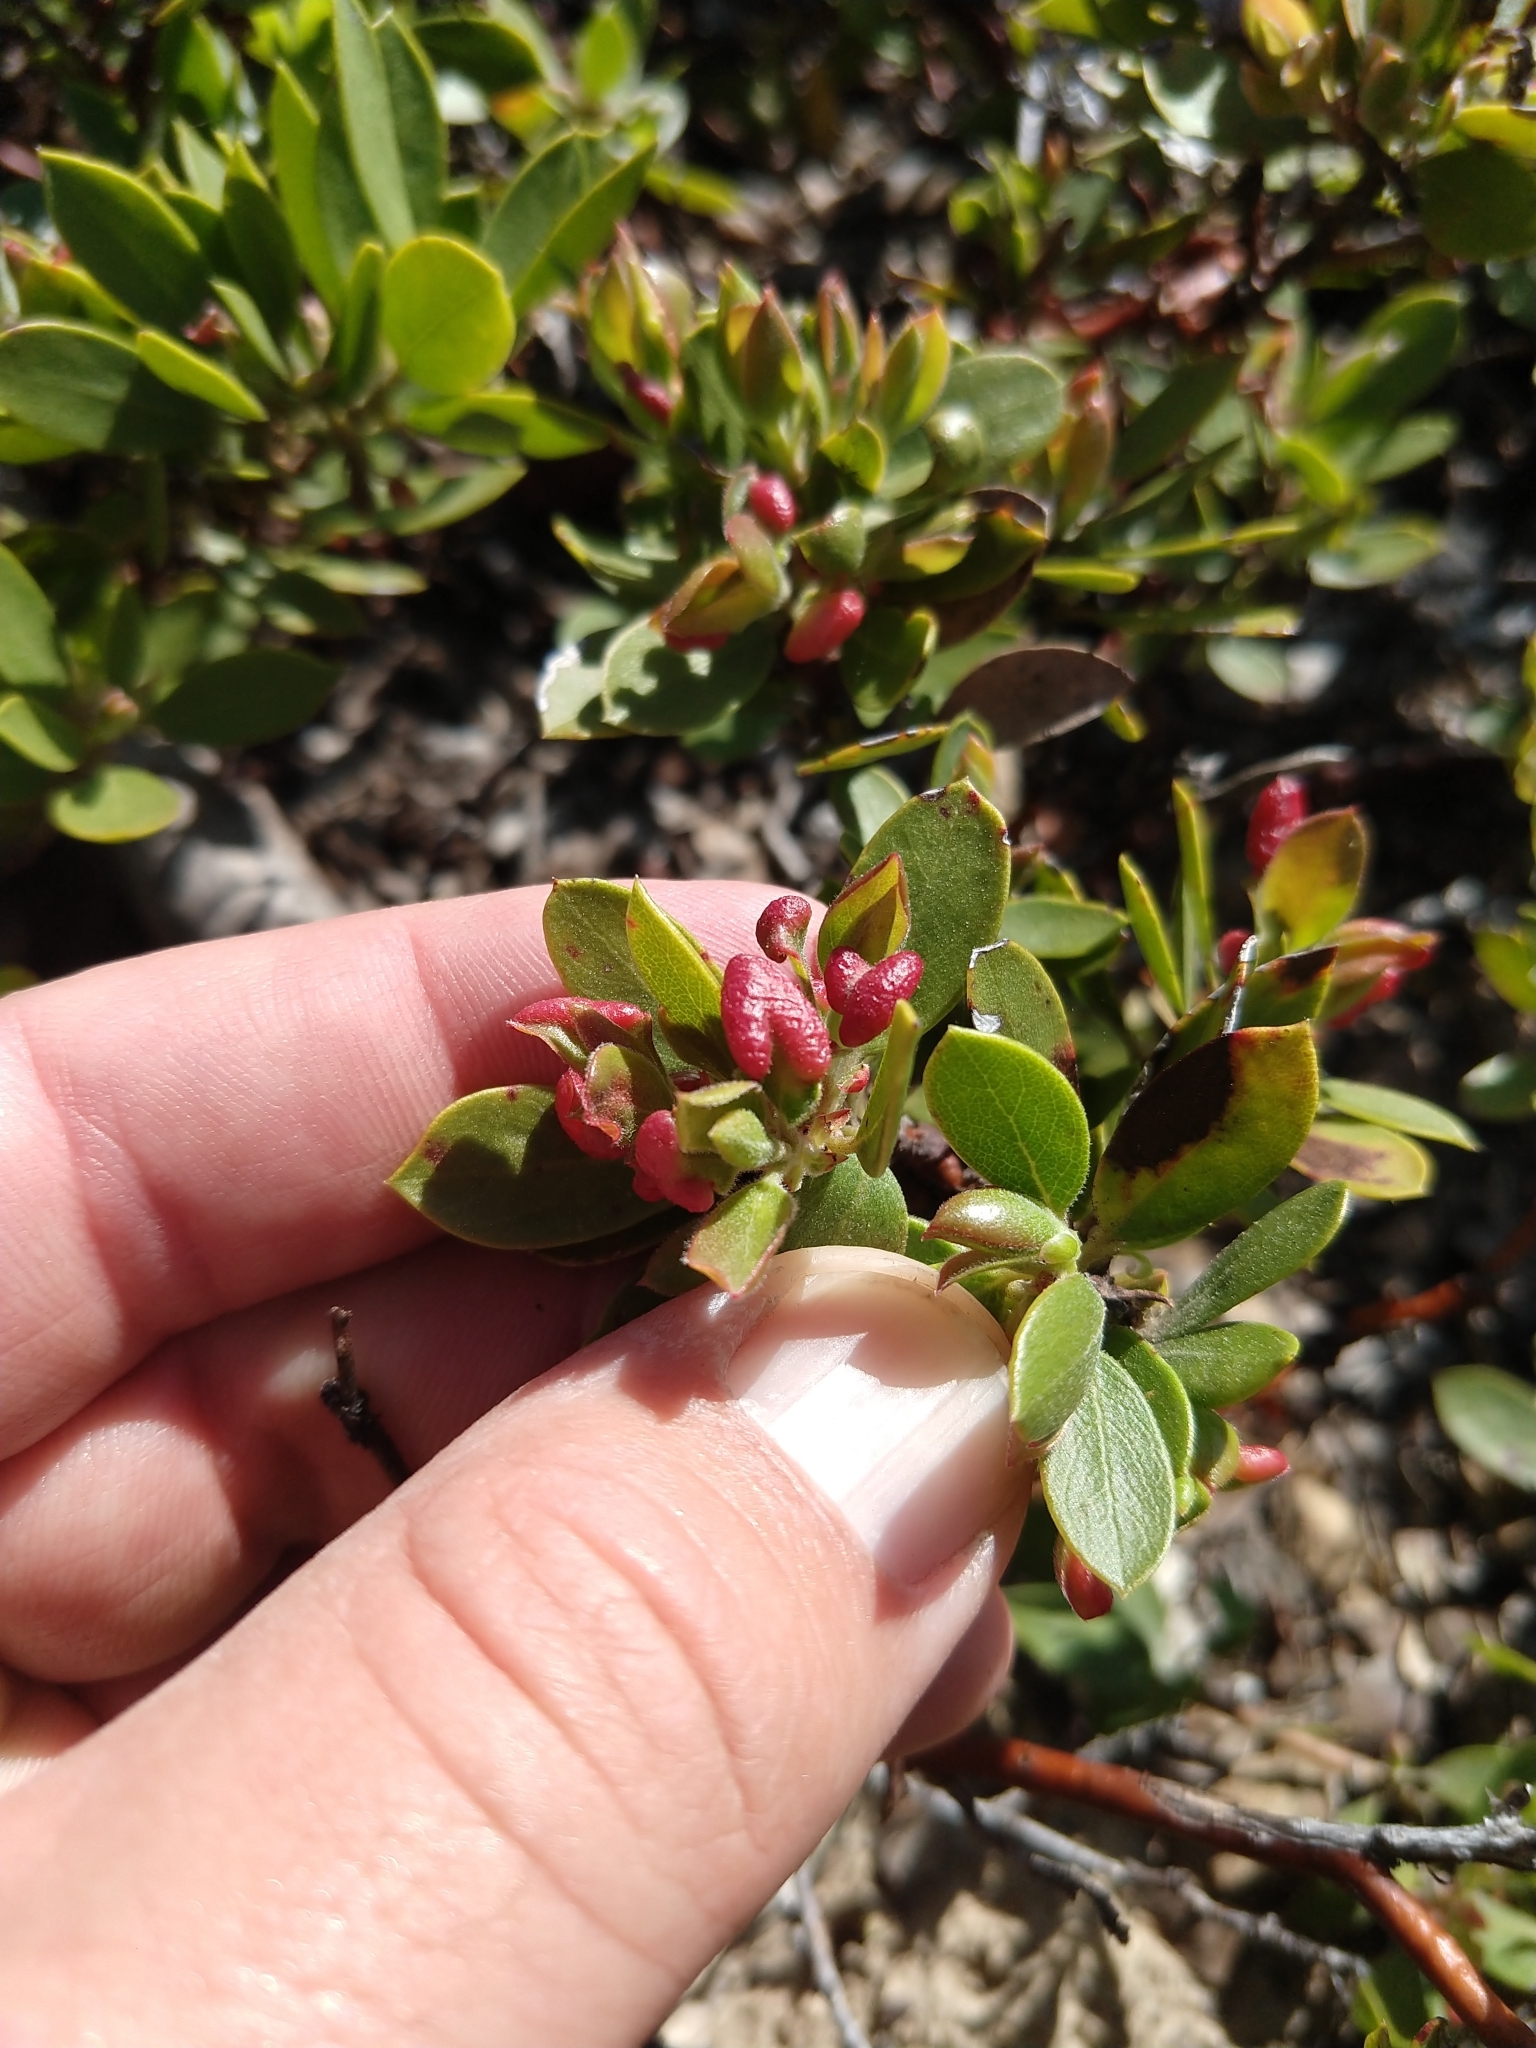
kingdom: Animalia
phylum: Arthropoda
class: Insecta
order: Hemiptera
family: Aphididae
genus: Tamalia
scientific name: Tamalia coweni
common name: Manzanita leafgall aphid
